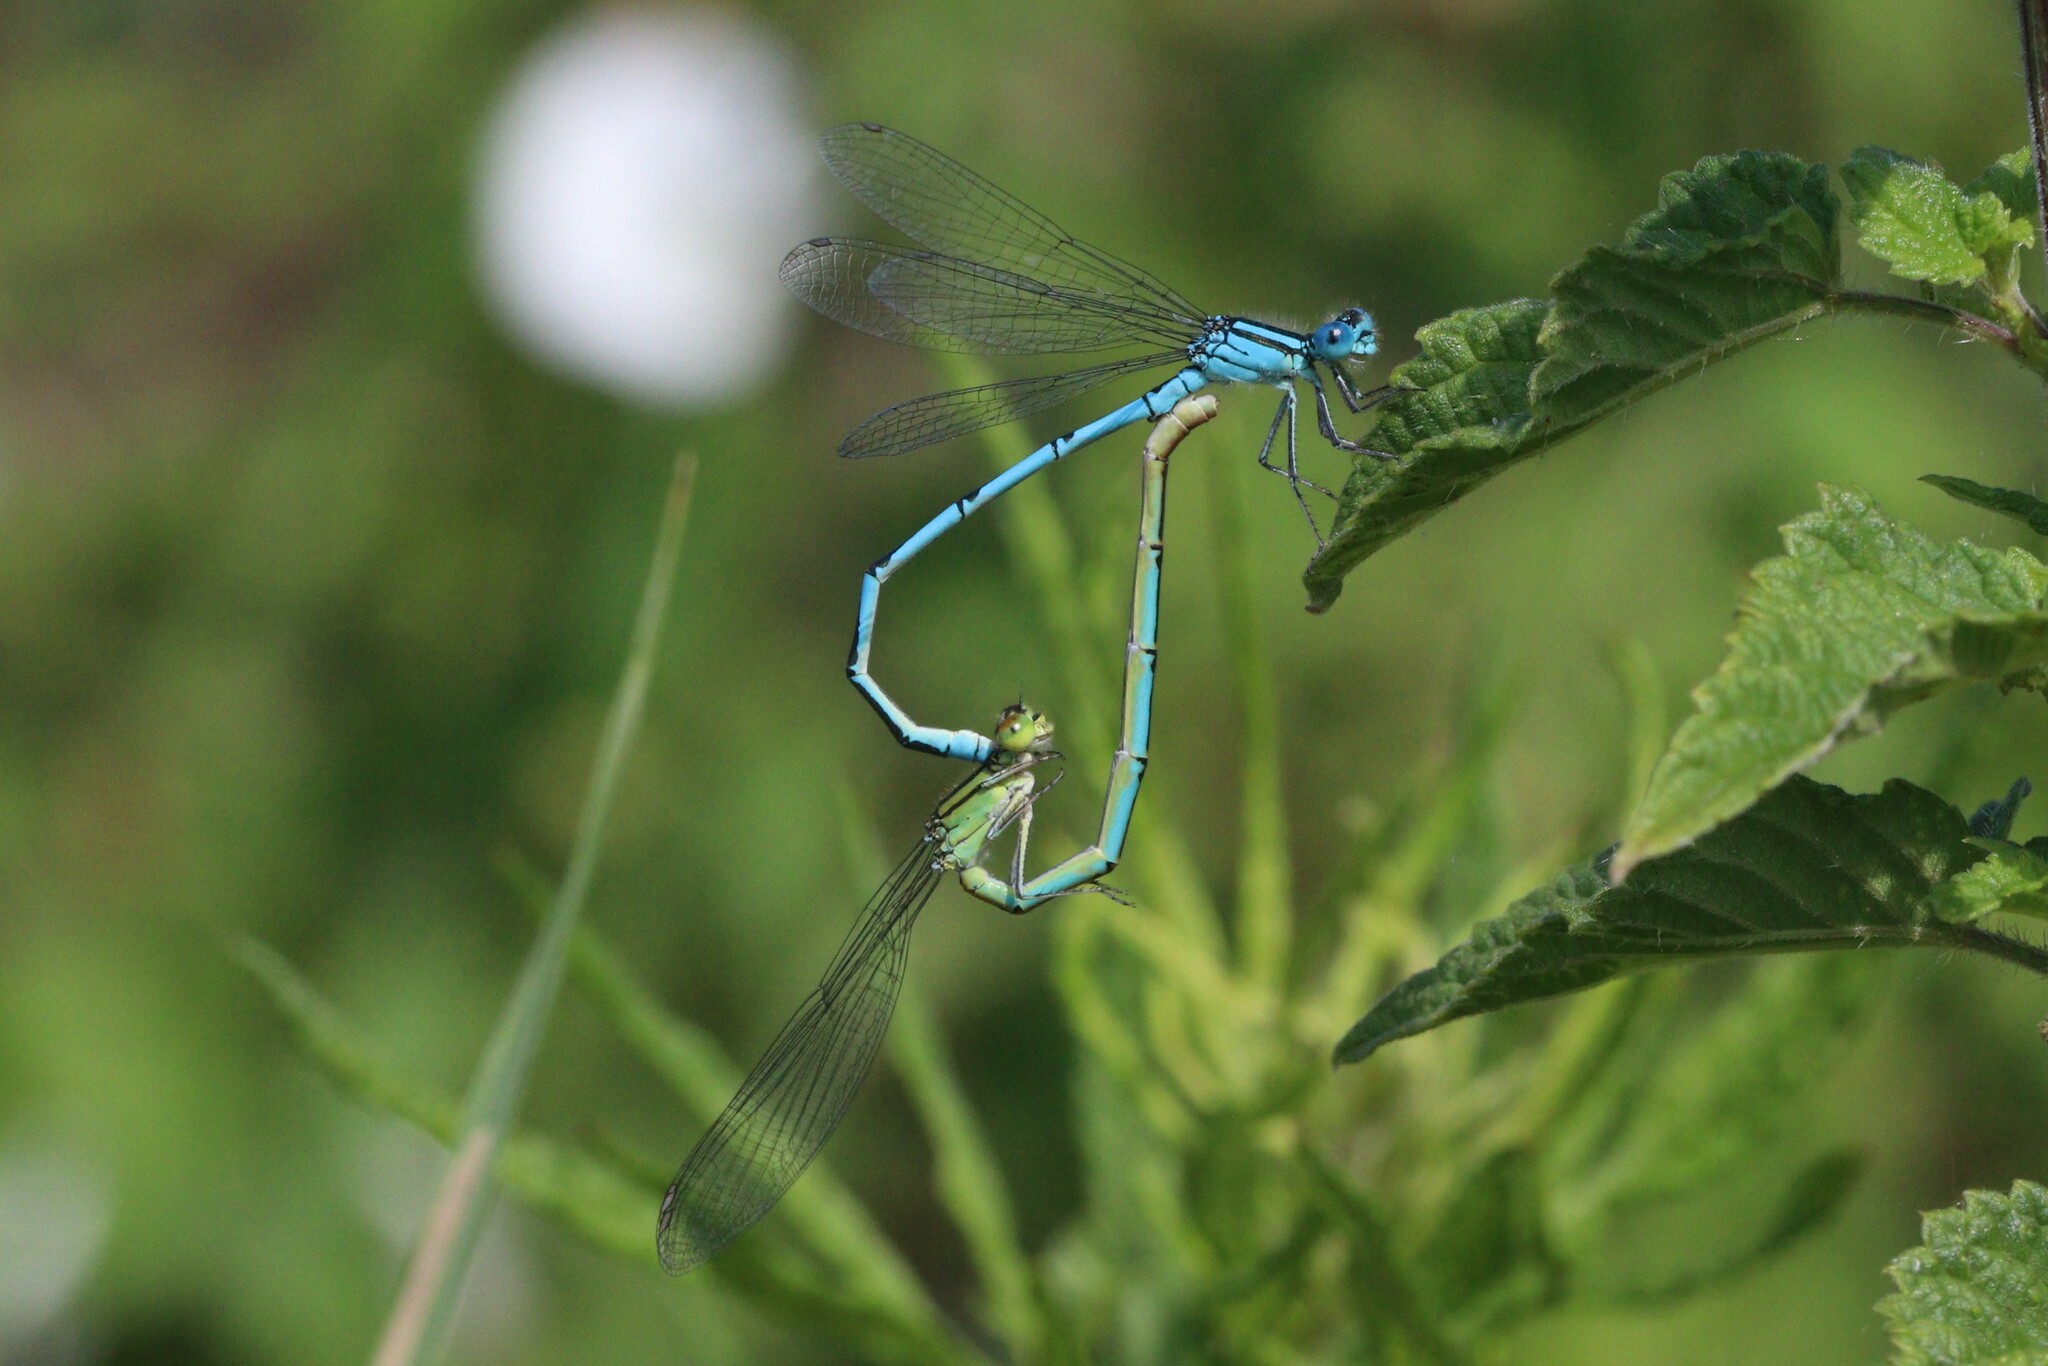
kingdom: Animalia
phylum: Arthropoda
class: Insecta
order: Odonata
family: Coenagrionidae
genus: Erythromma
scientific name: Erythromma lindenii
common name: Blue-eye
